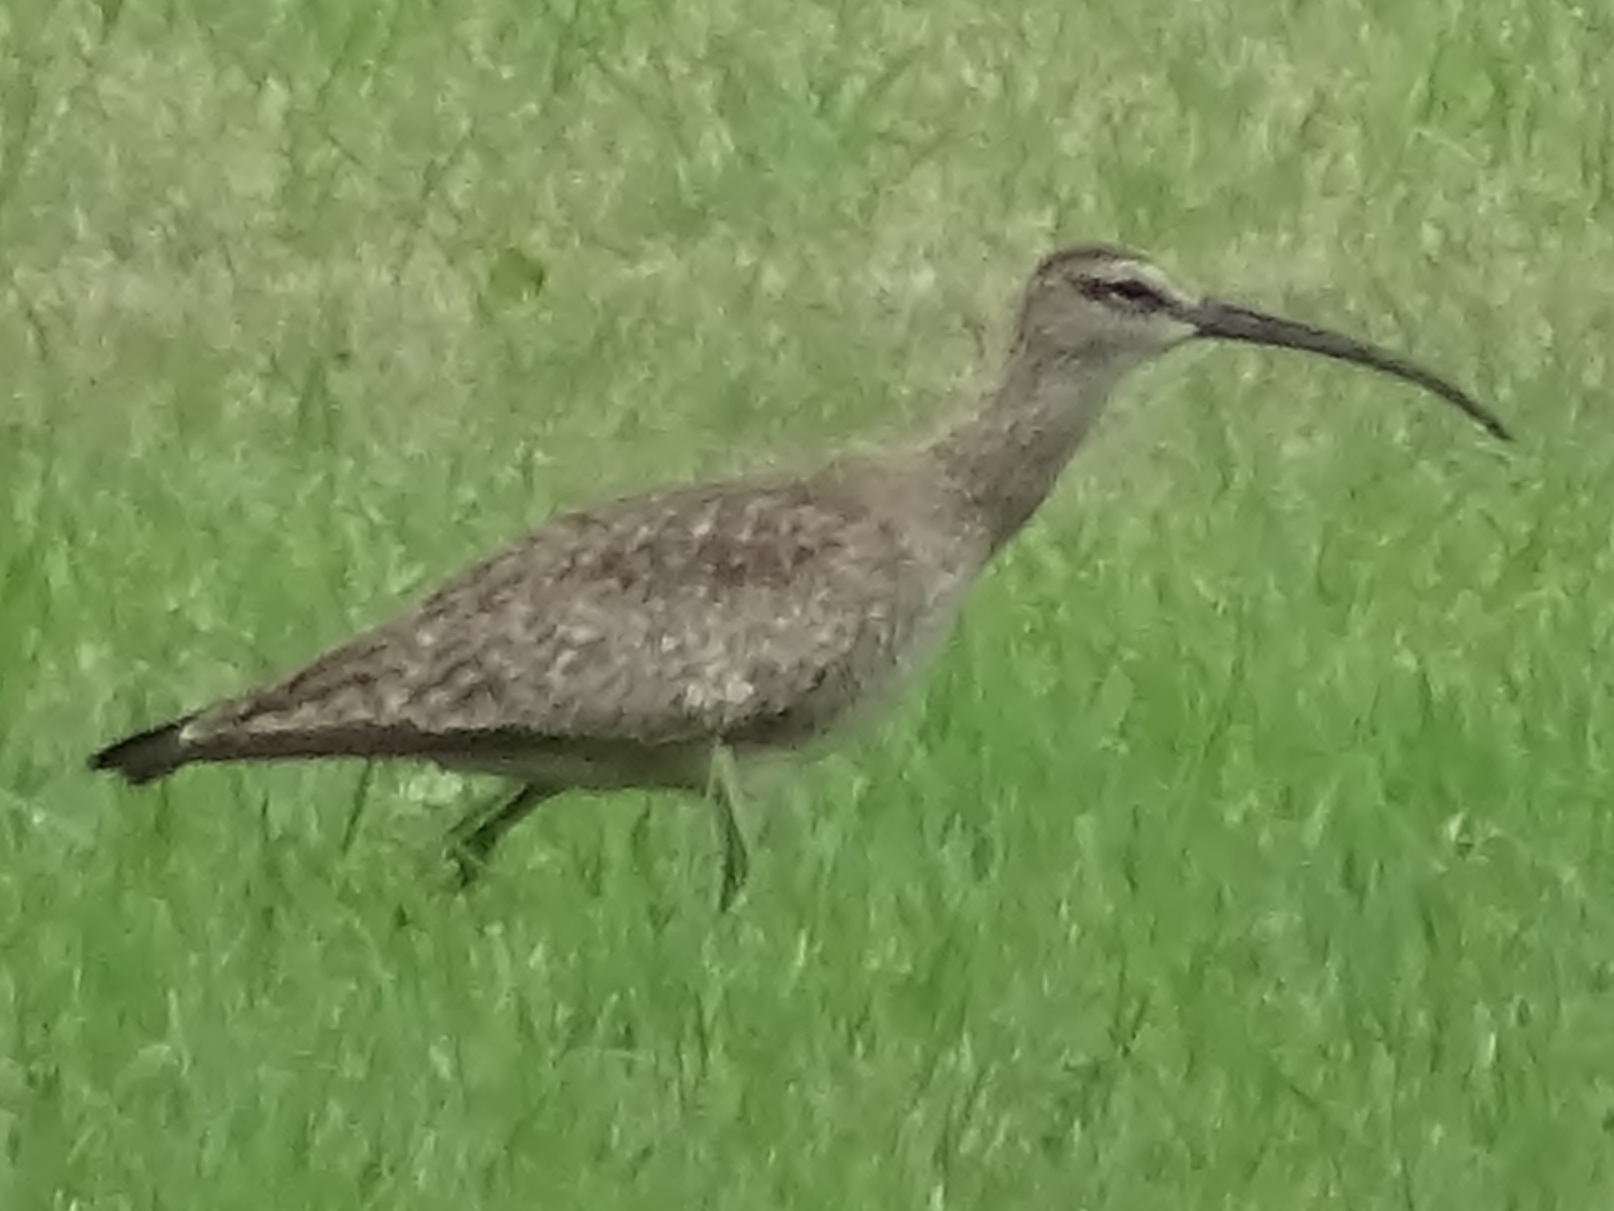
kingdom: Animalia
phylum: Chordata
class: Aves
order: Charadriiformes
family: Scolopacidae
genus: Numenius
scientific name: Numenius phaeopus
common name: Whimbrel
